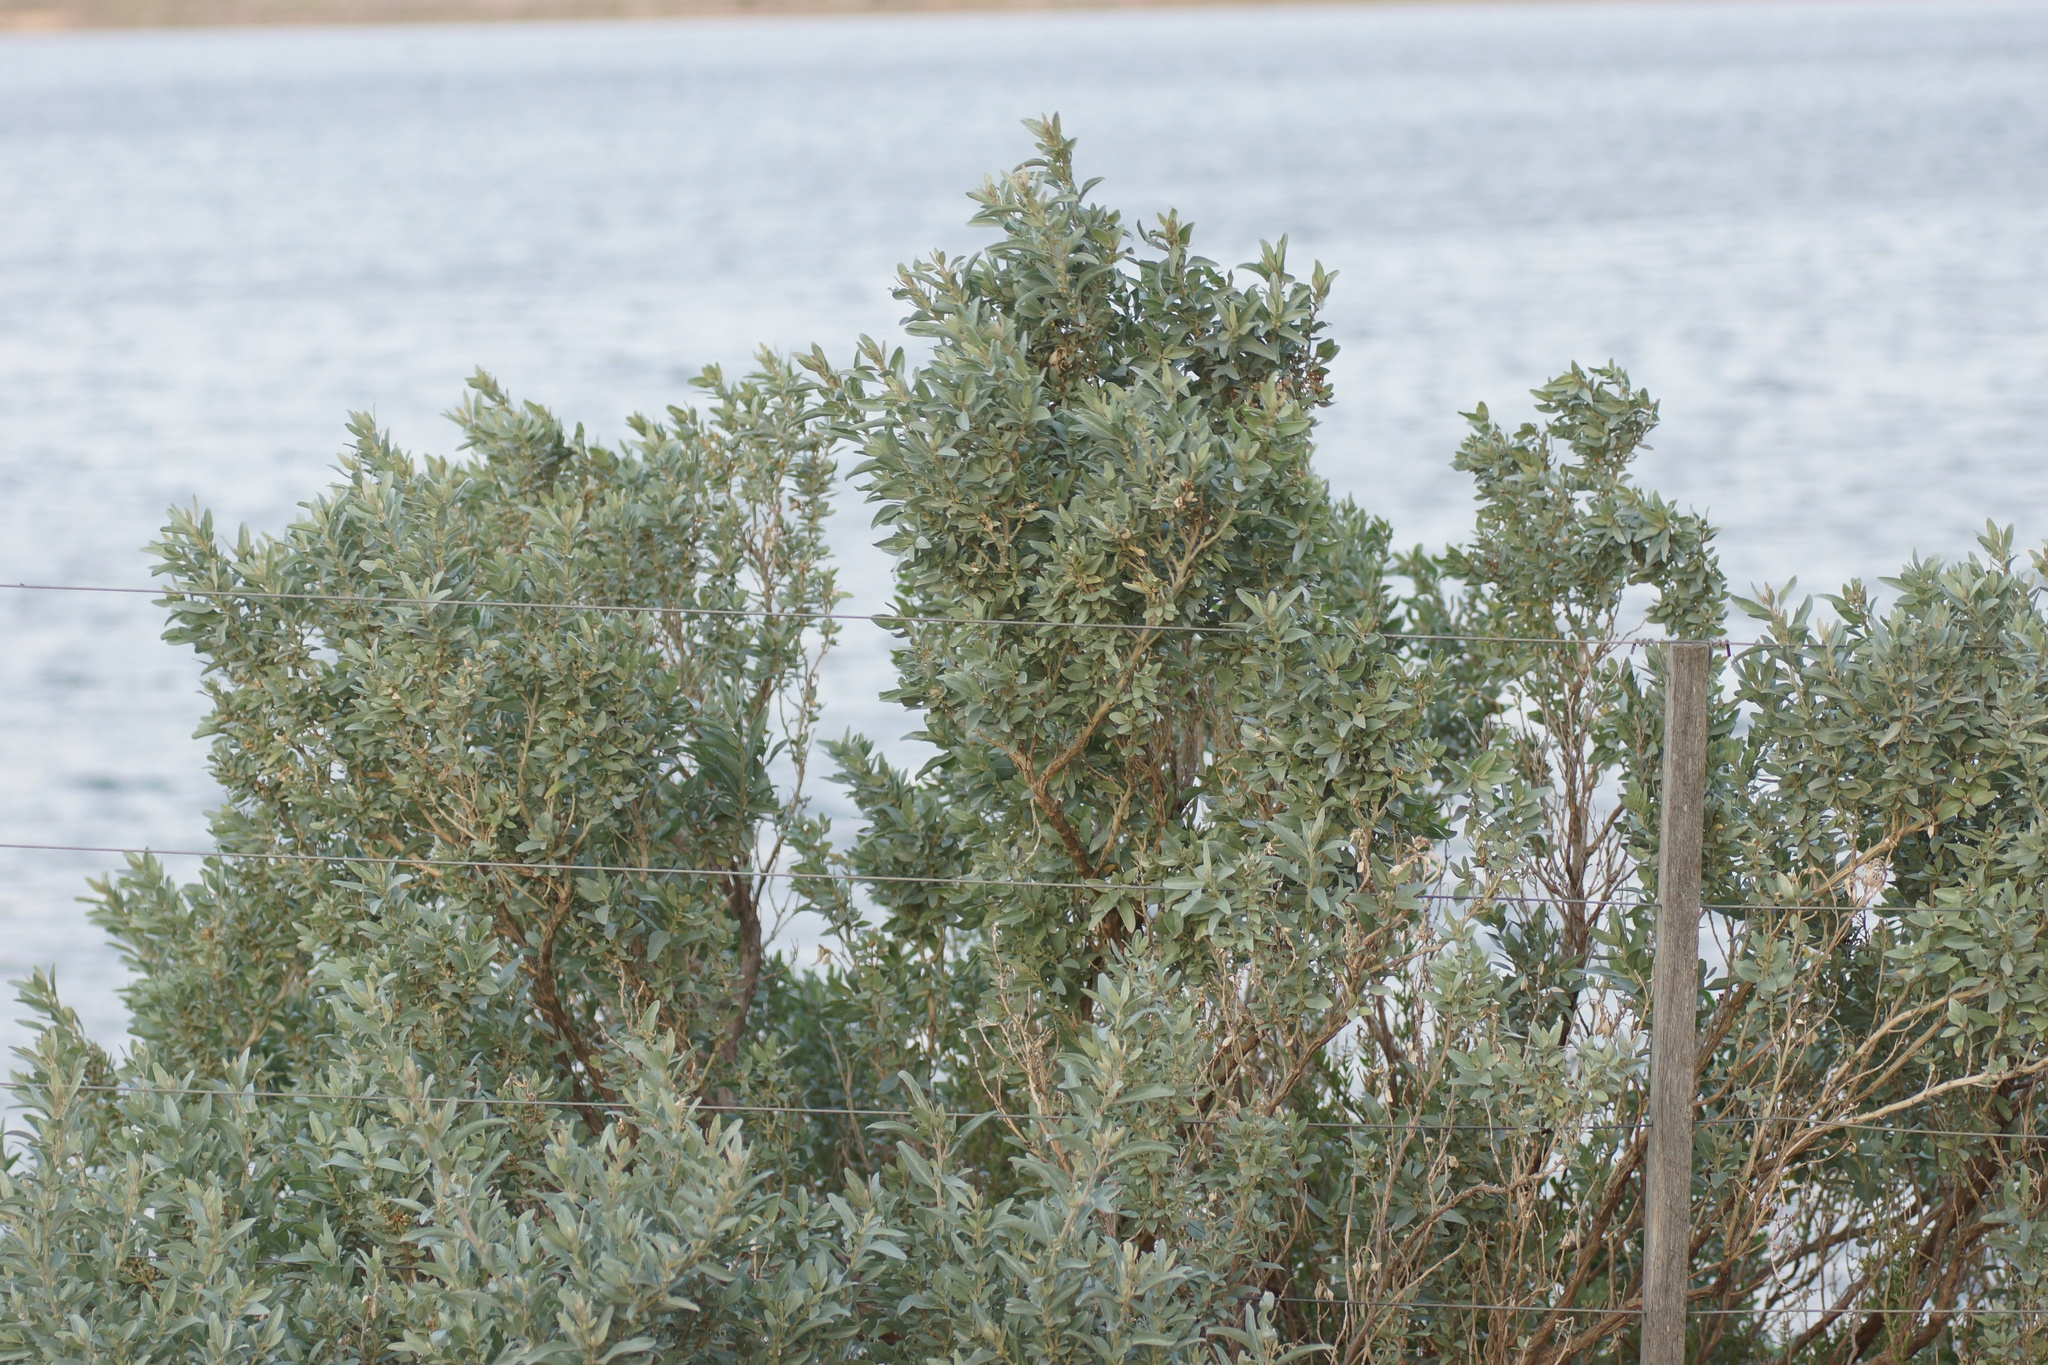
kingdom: Plantae
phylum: Tracheophyta
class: Magnoliopsida
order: Caryophyllales
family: Amaranthaceae
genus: Atriplex
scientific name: Atriplex cinerea
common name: Grey saltbush
